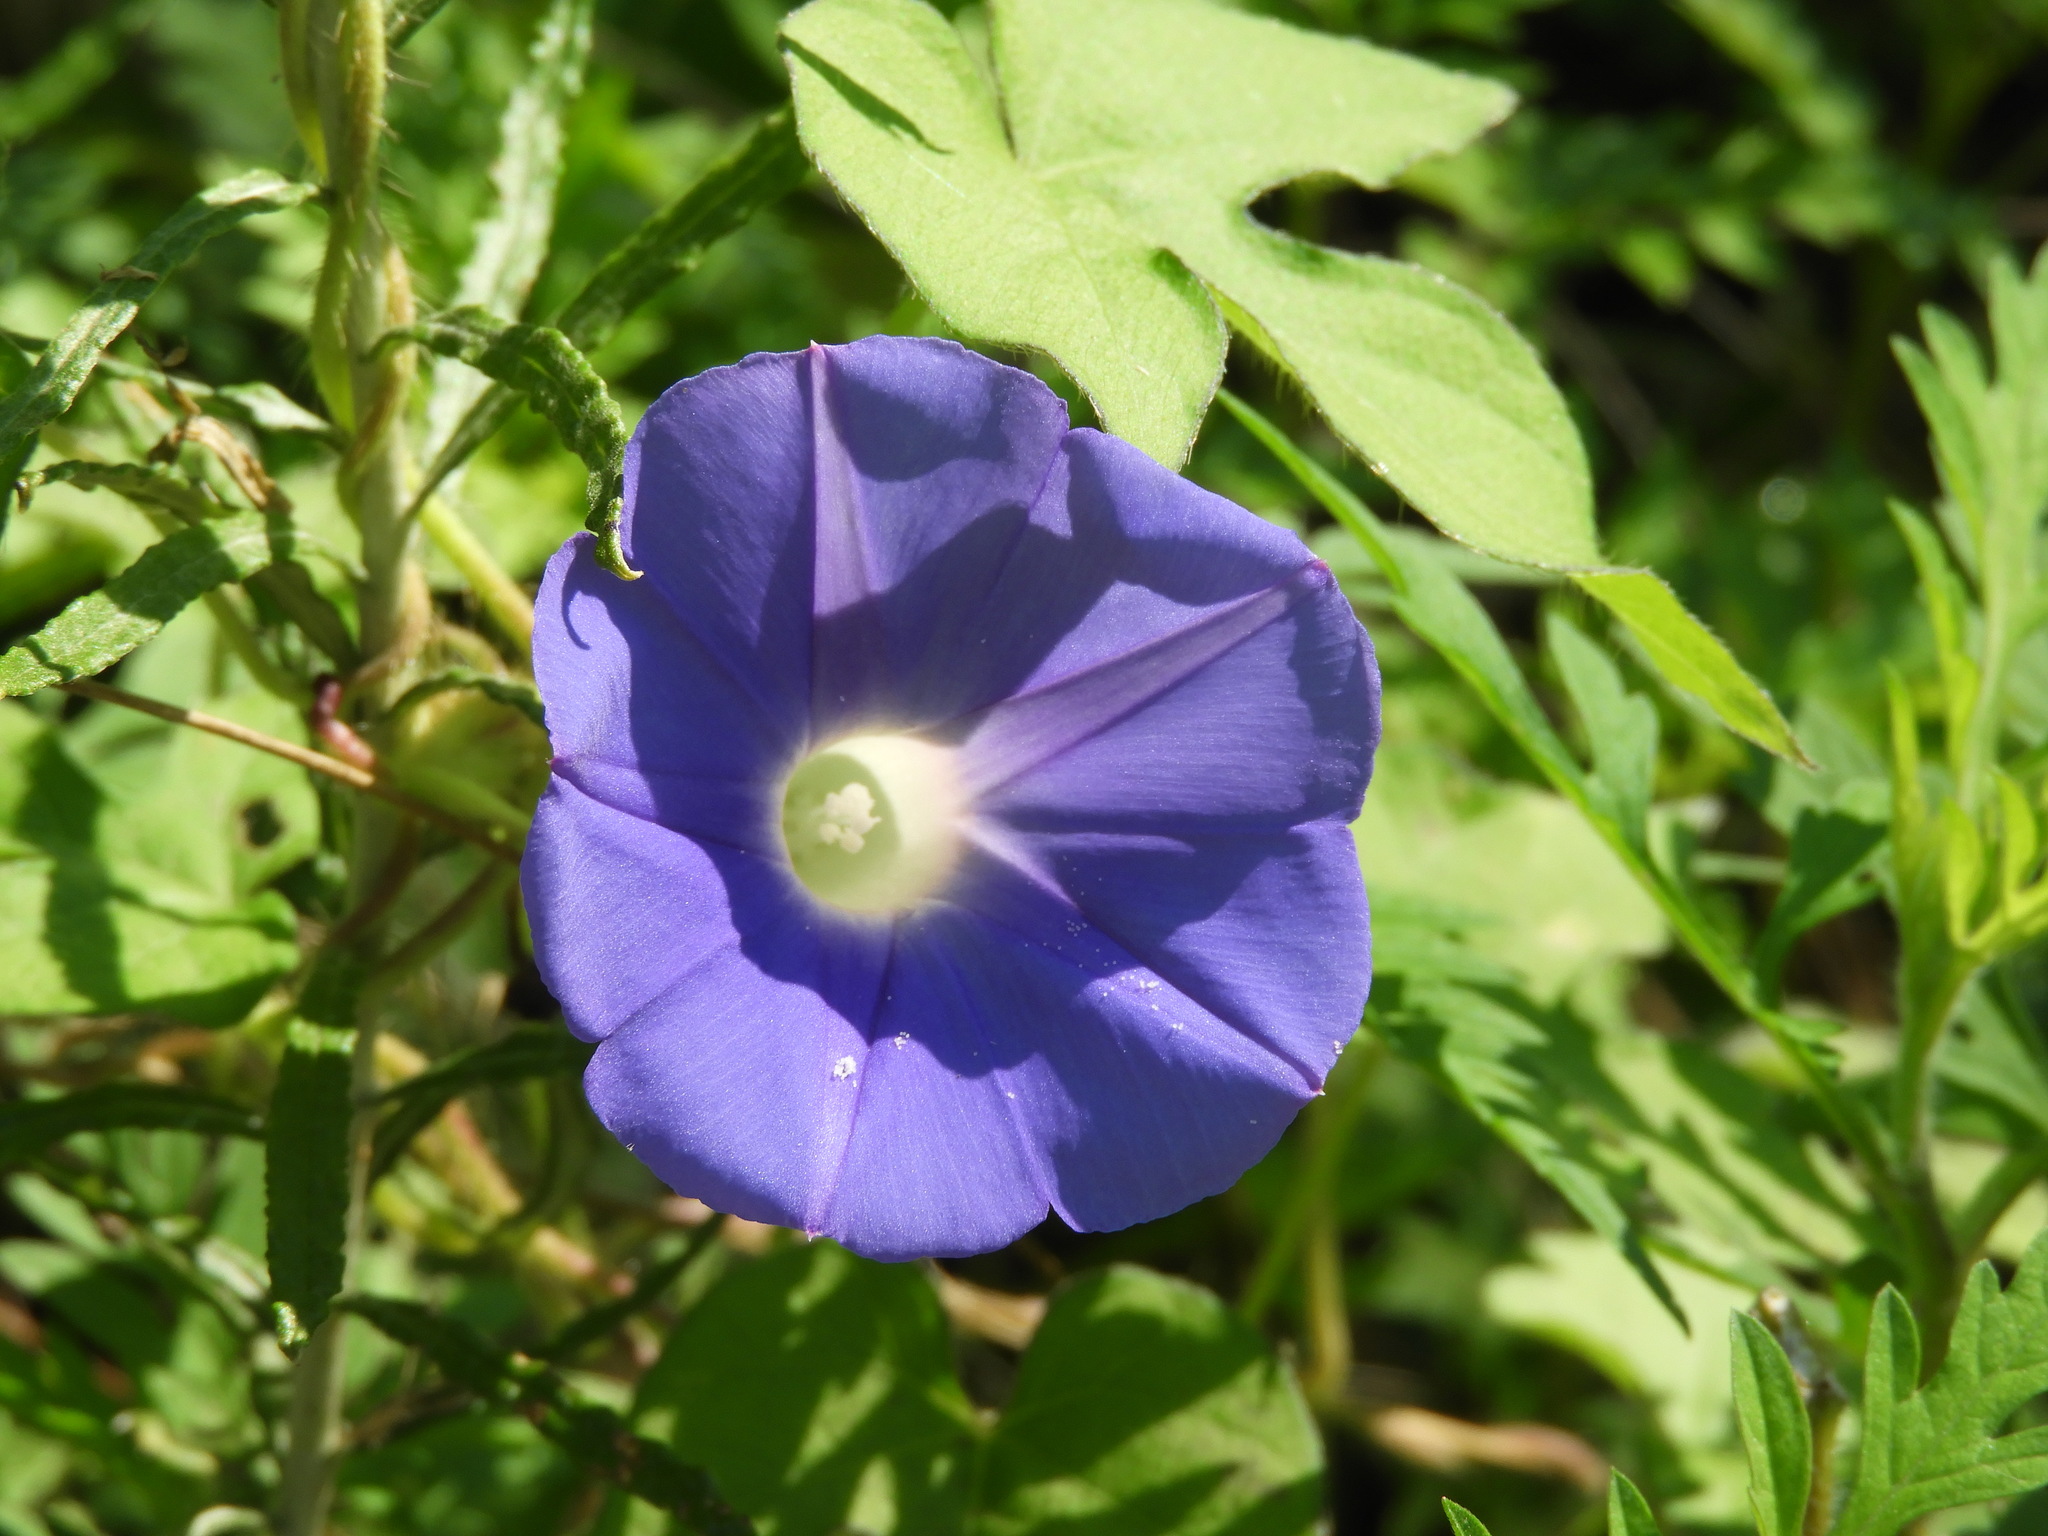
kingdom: Plantae
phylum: Tracheophyta
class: Magnoliopsida
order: Solanales
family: Convolvulaceae
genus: Ipomoea
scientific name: Ipomoea hederacea
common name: Ivy-leaved morning-glory
